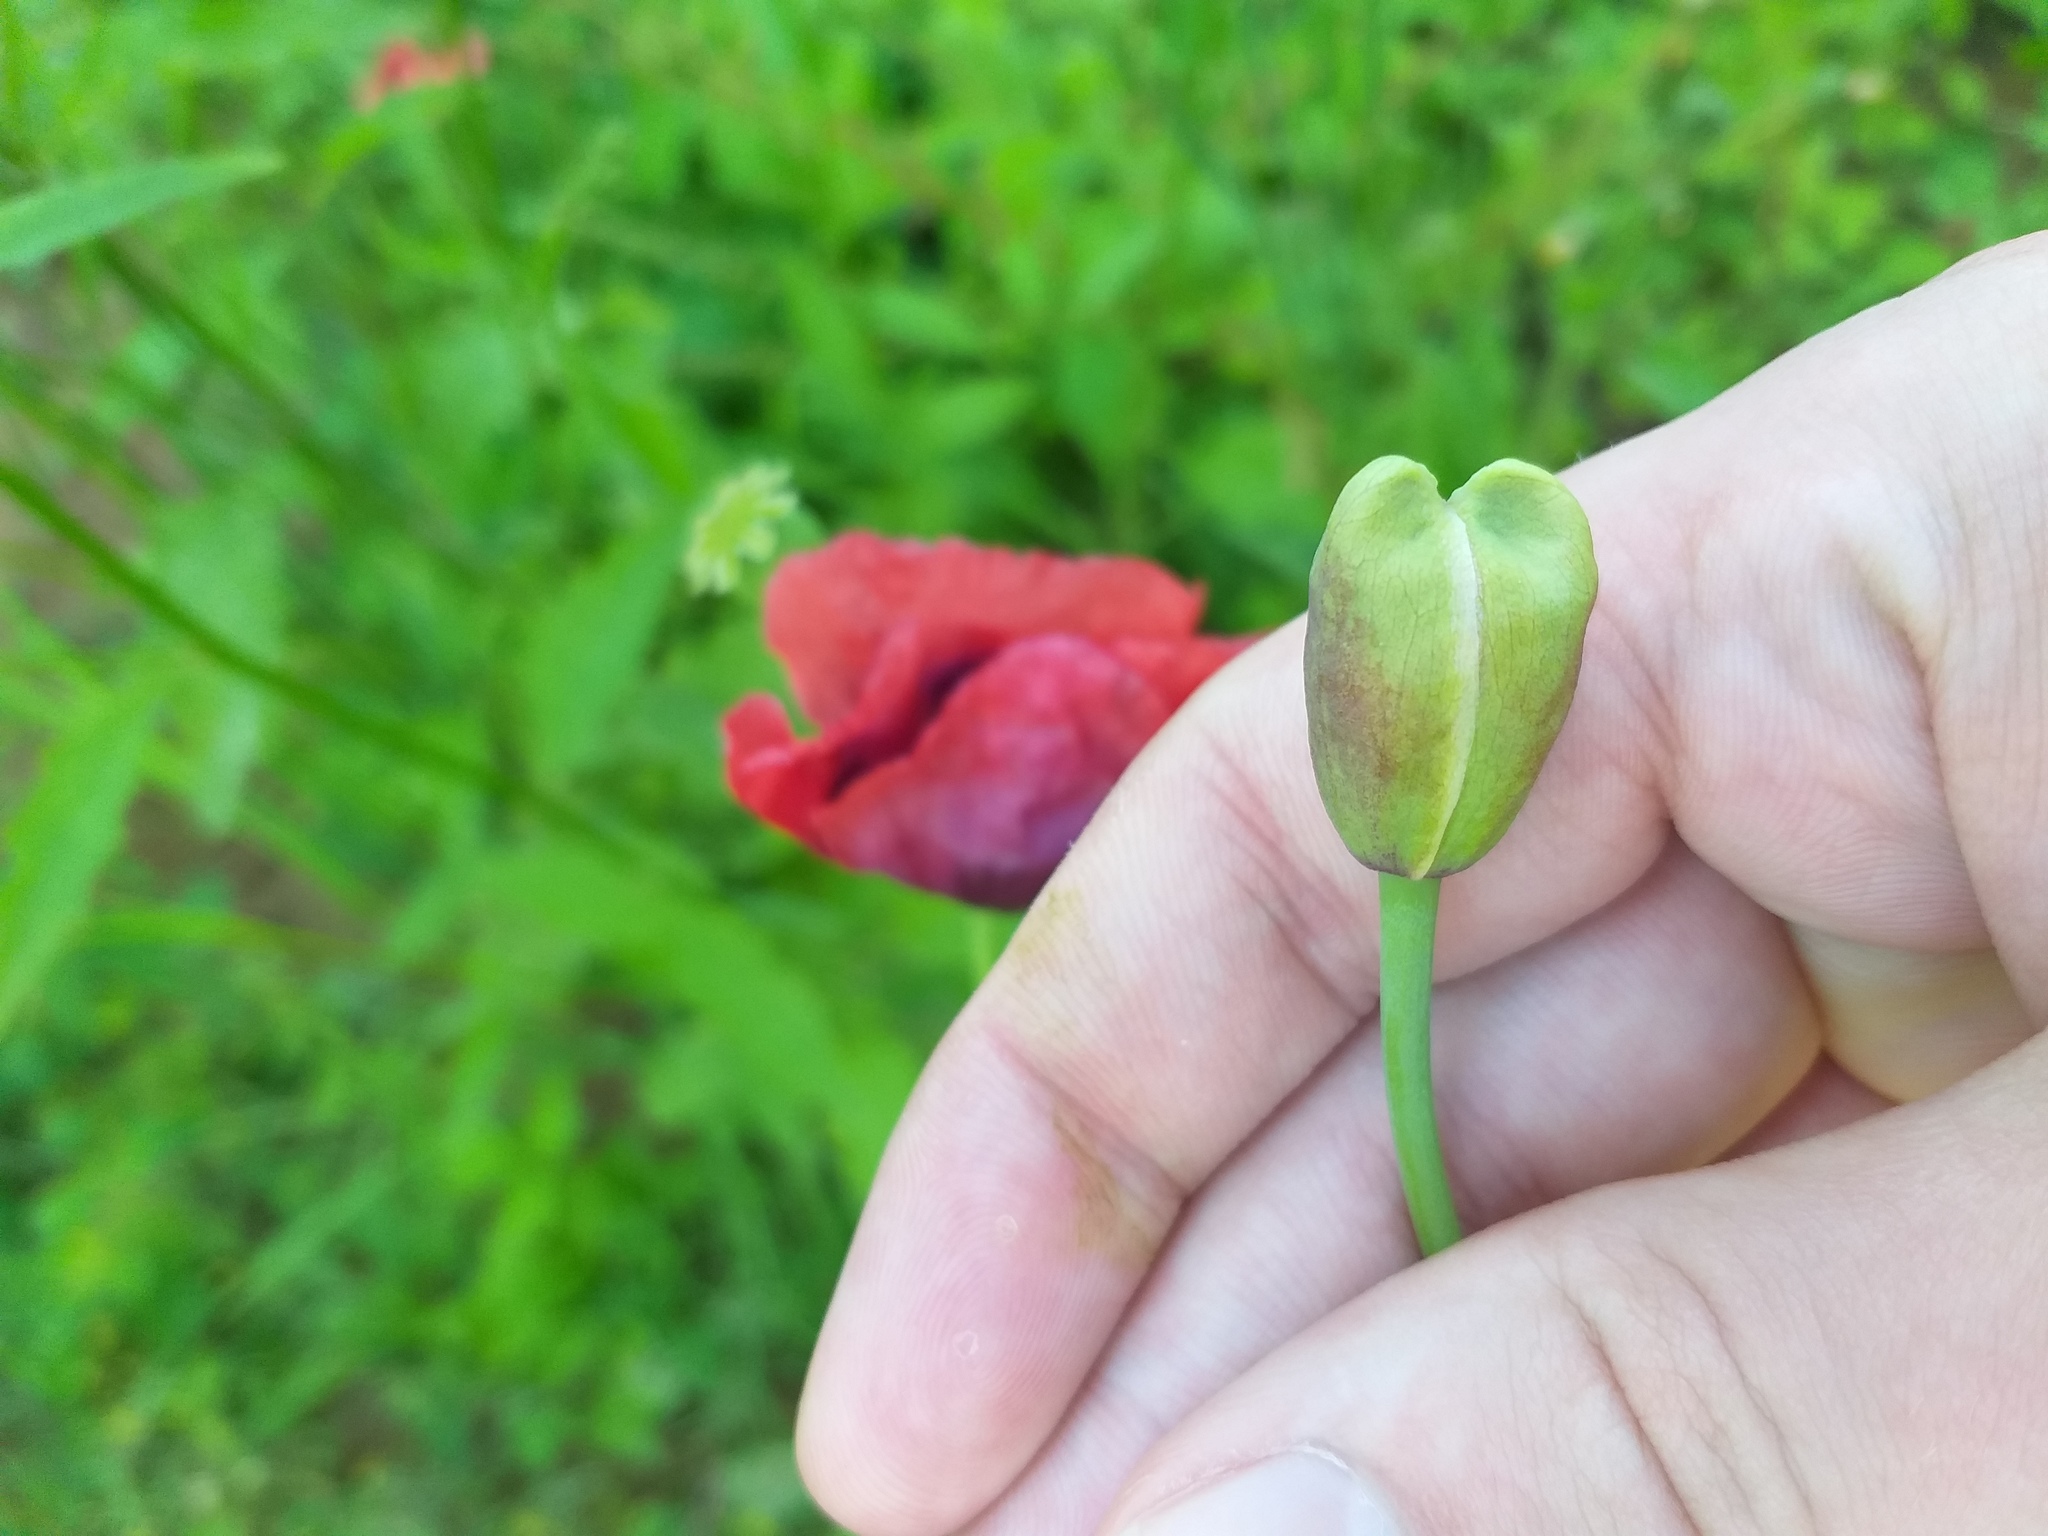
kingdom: Plantae
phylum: Tracheophyta
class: Magnoliopsida
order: Ranunculales
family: Papaveraceae
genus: Papaver
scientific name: Papaver somniferum
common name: Opium poppy
